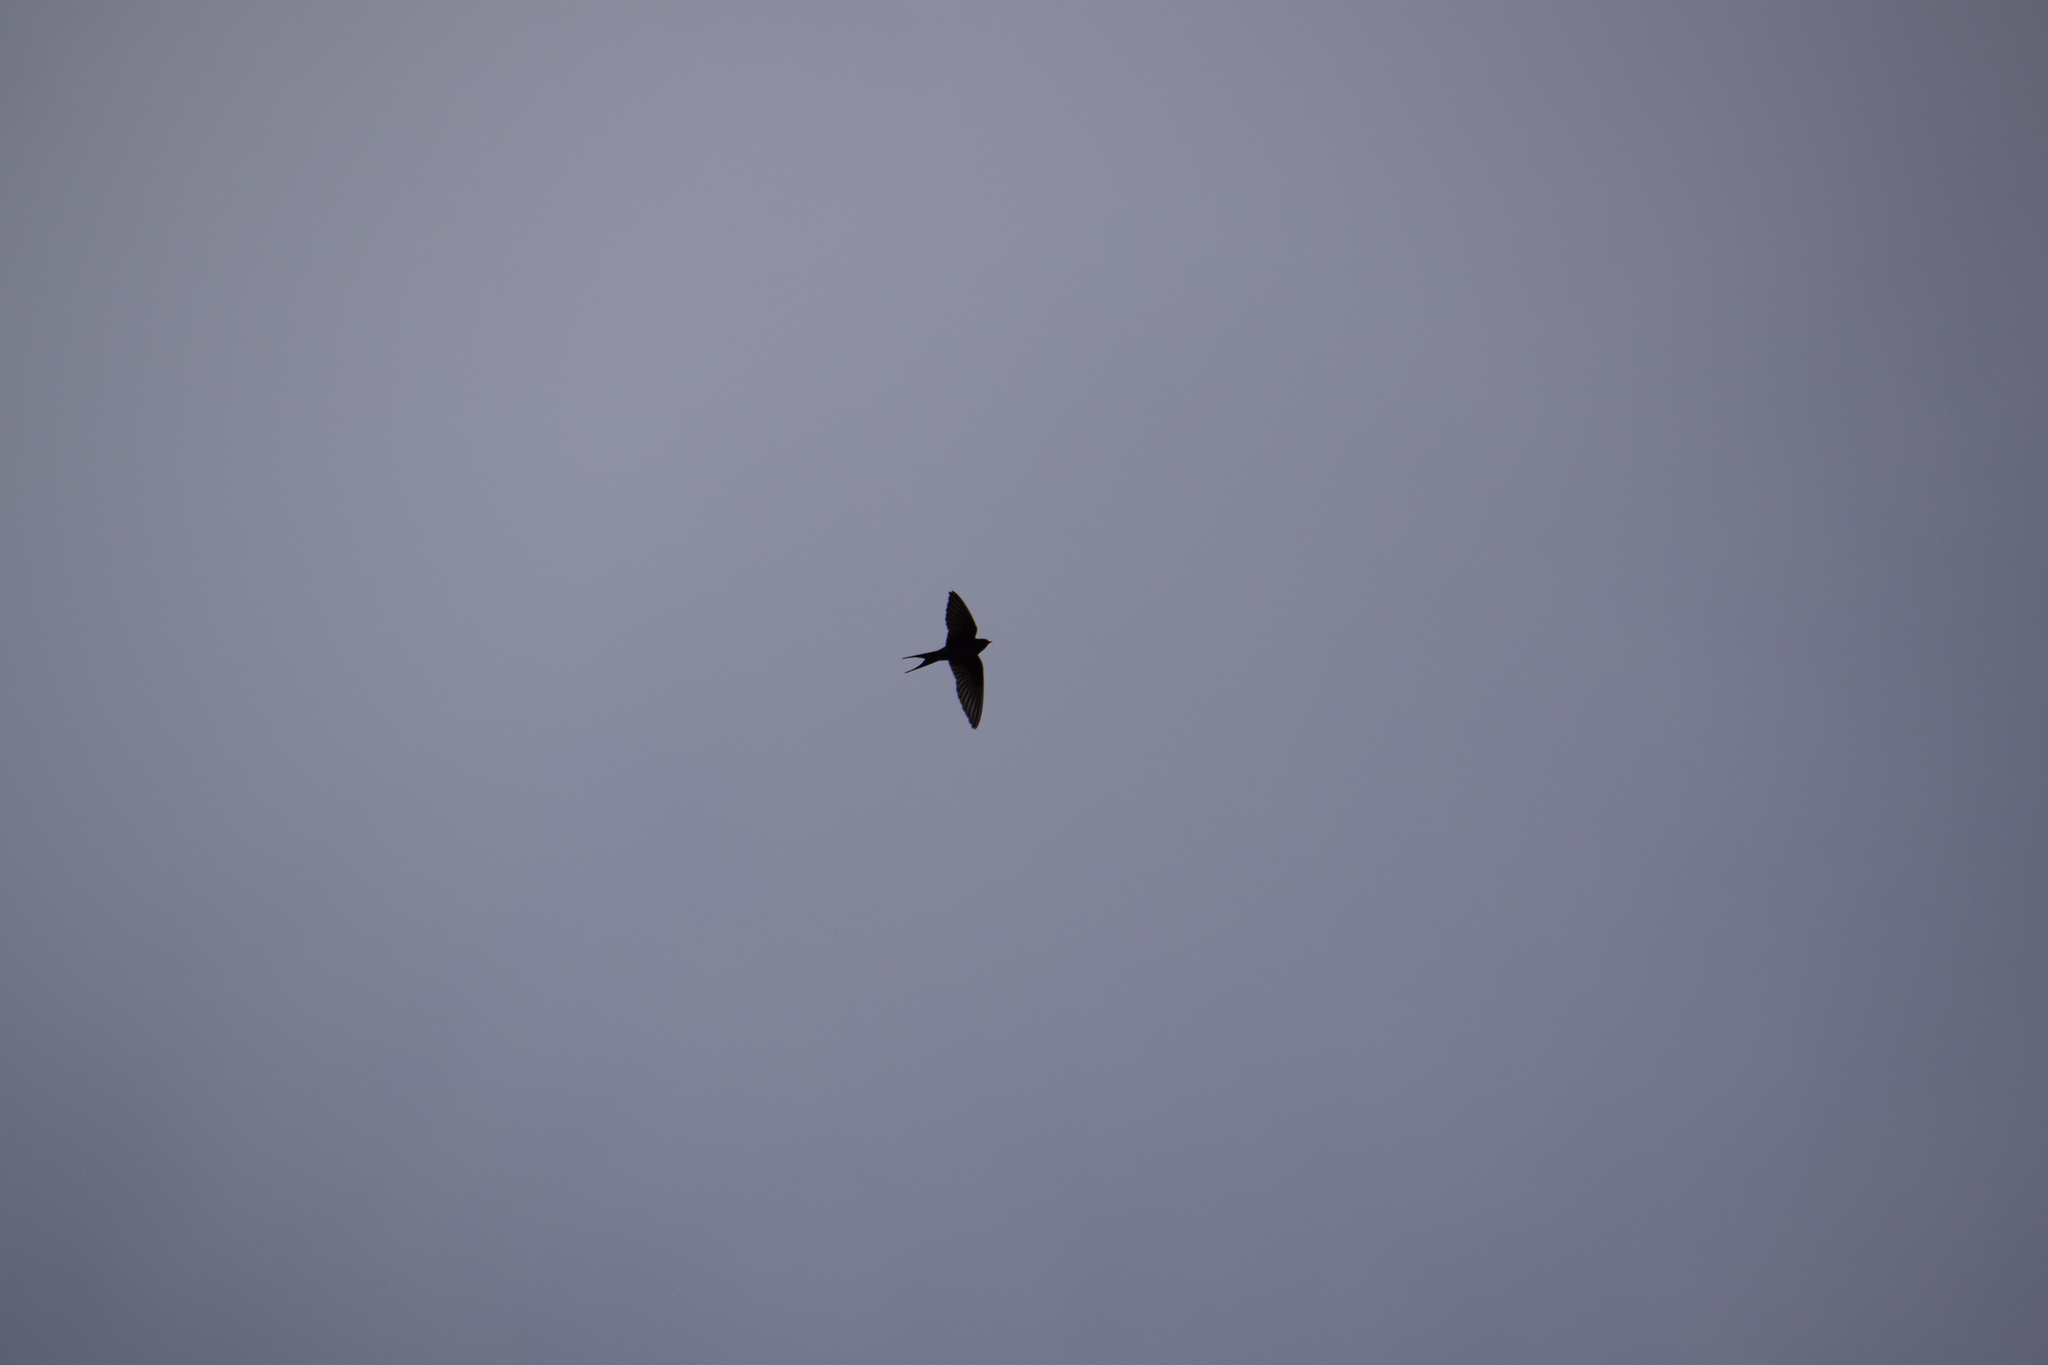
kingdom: Animalia
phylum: Chordata
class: Aves
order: Passeriformes
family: Hirundinidae
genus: Hirundo
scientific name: Hirundo neoxena
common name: Welcome swallow
